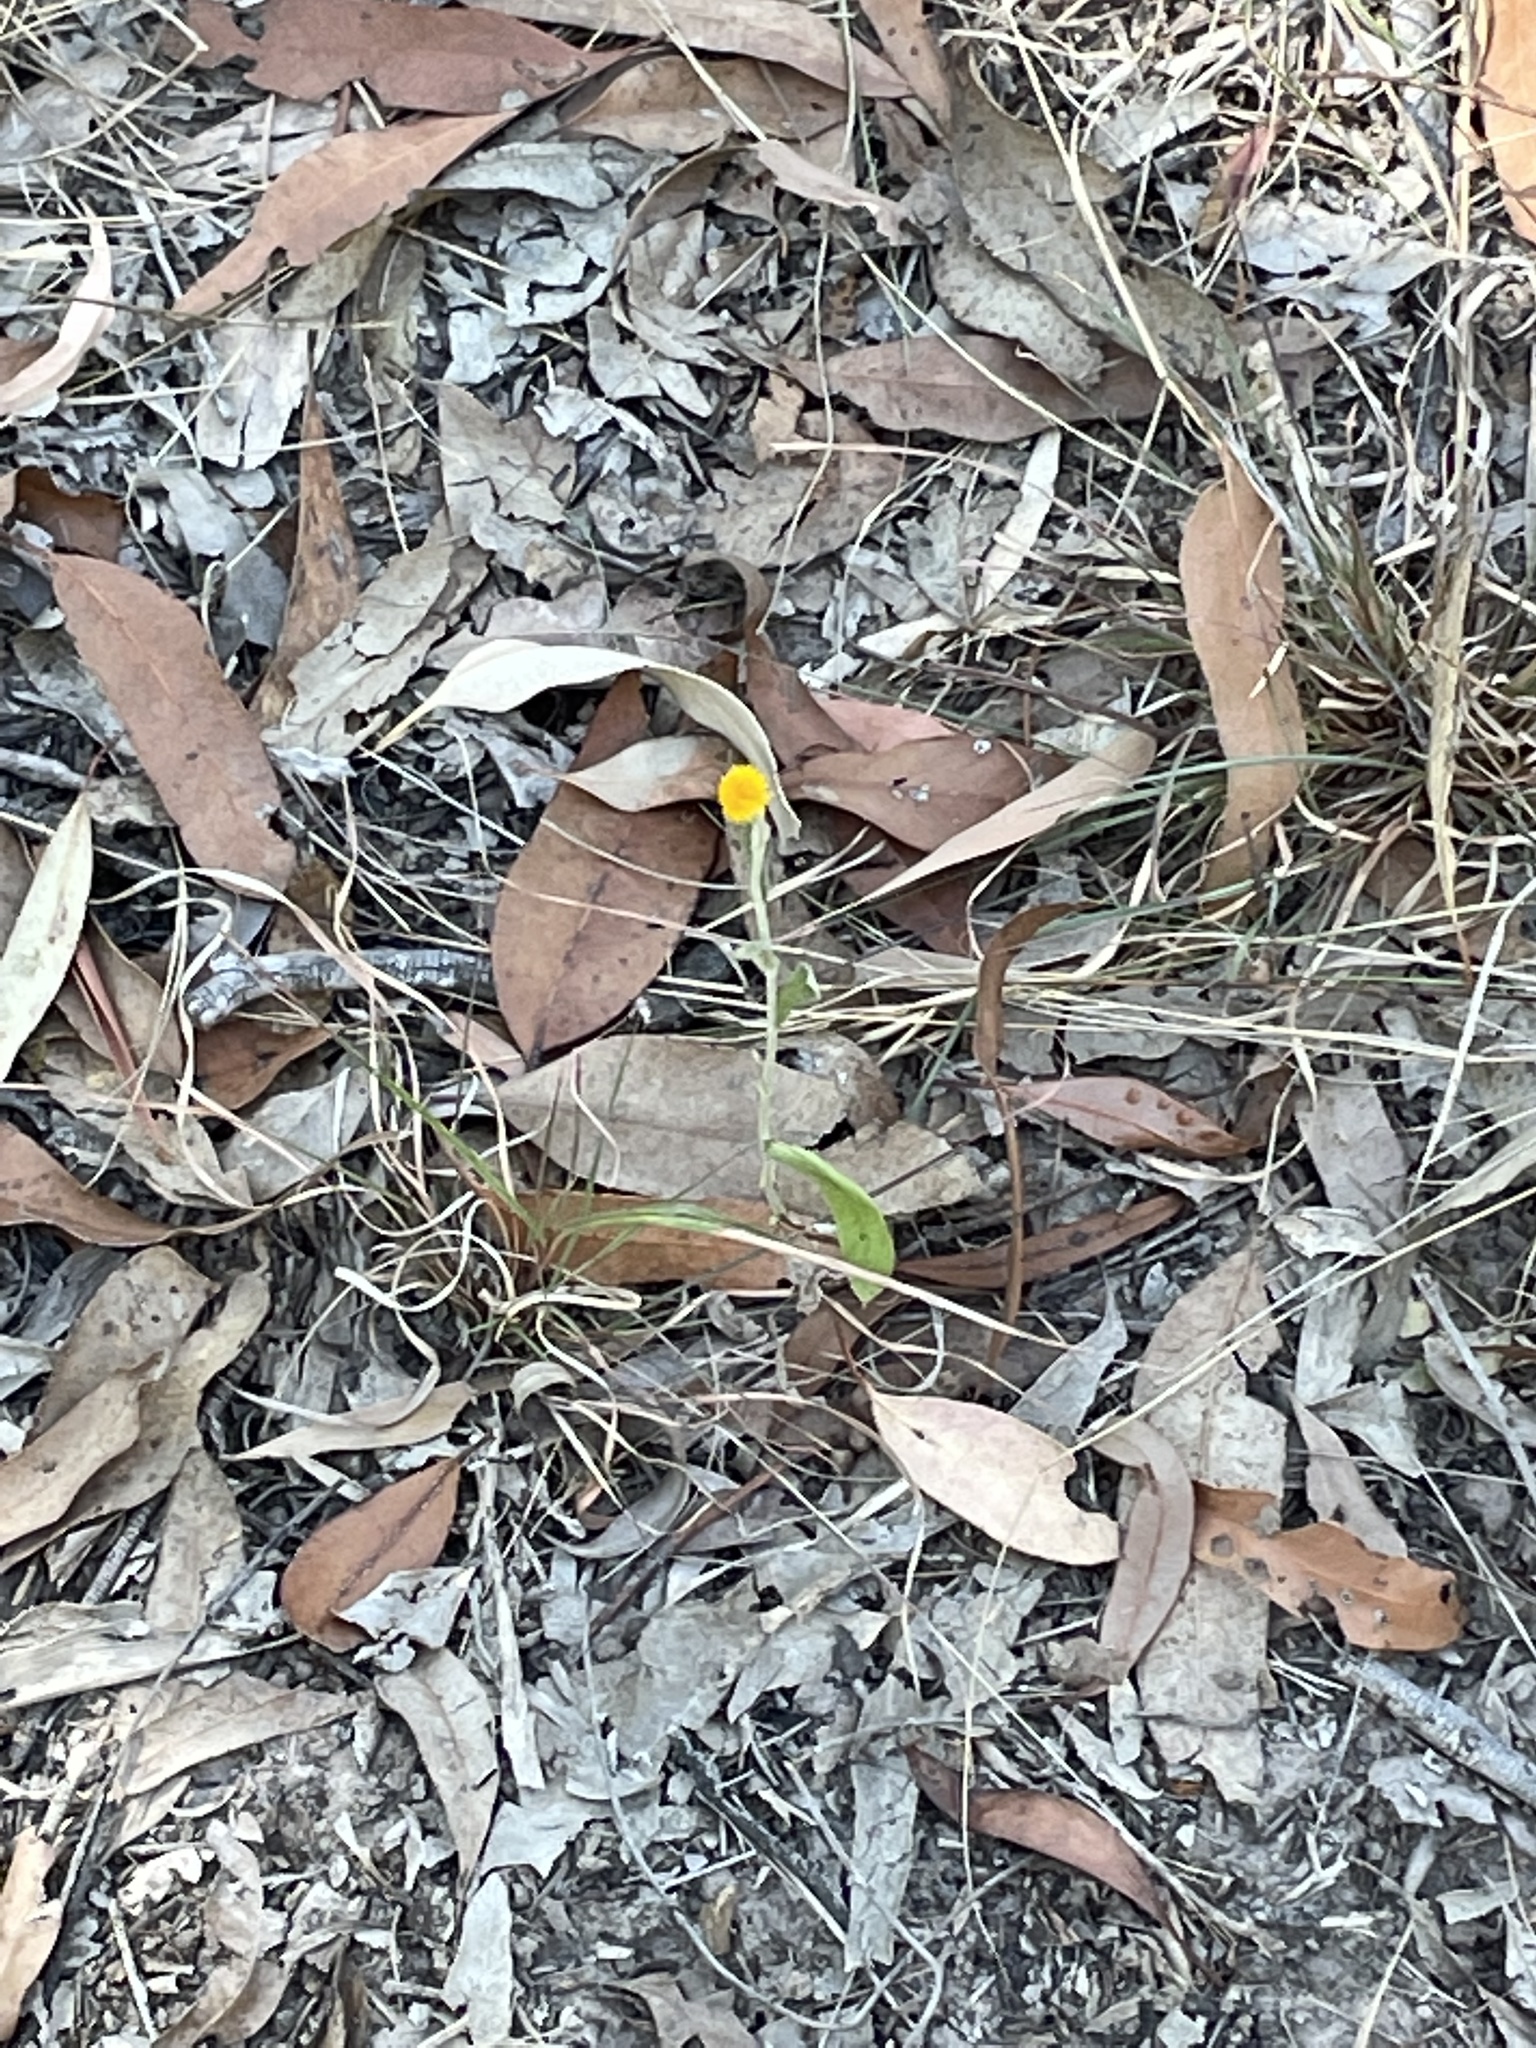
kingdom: Plantae
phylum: Tracheophyta
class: Magnoliopsida
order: Asterales
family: Asteraceae
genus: Chrysocephalum
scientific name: Chrysocephalum apiculatum
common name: Common everlasting
